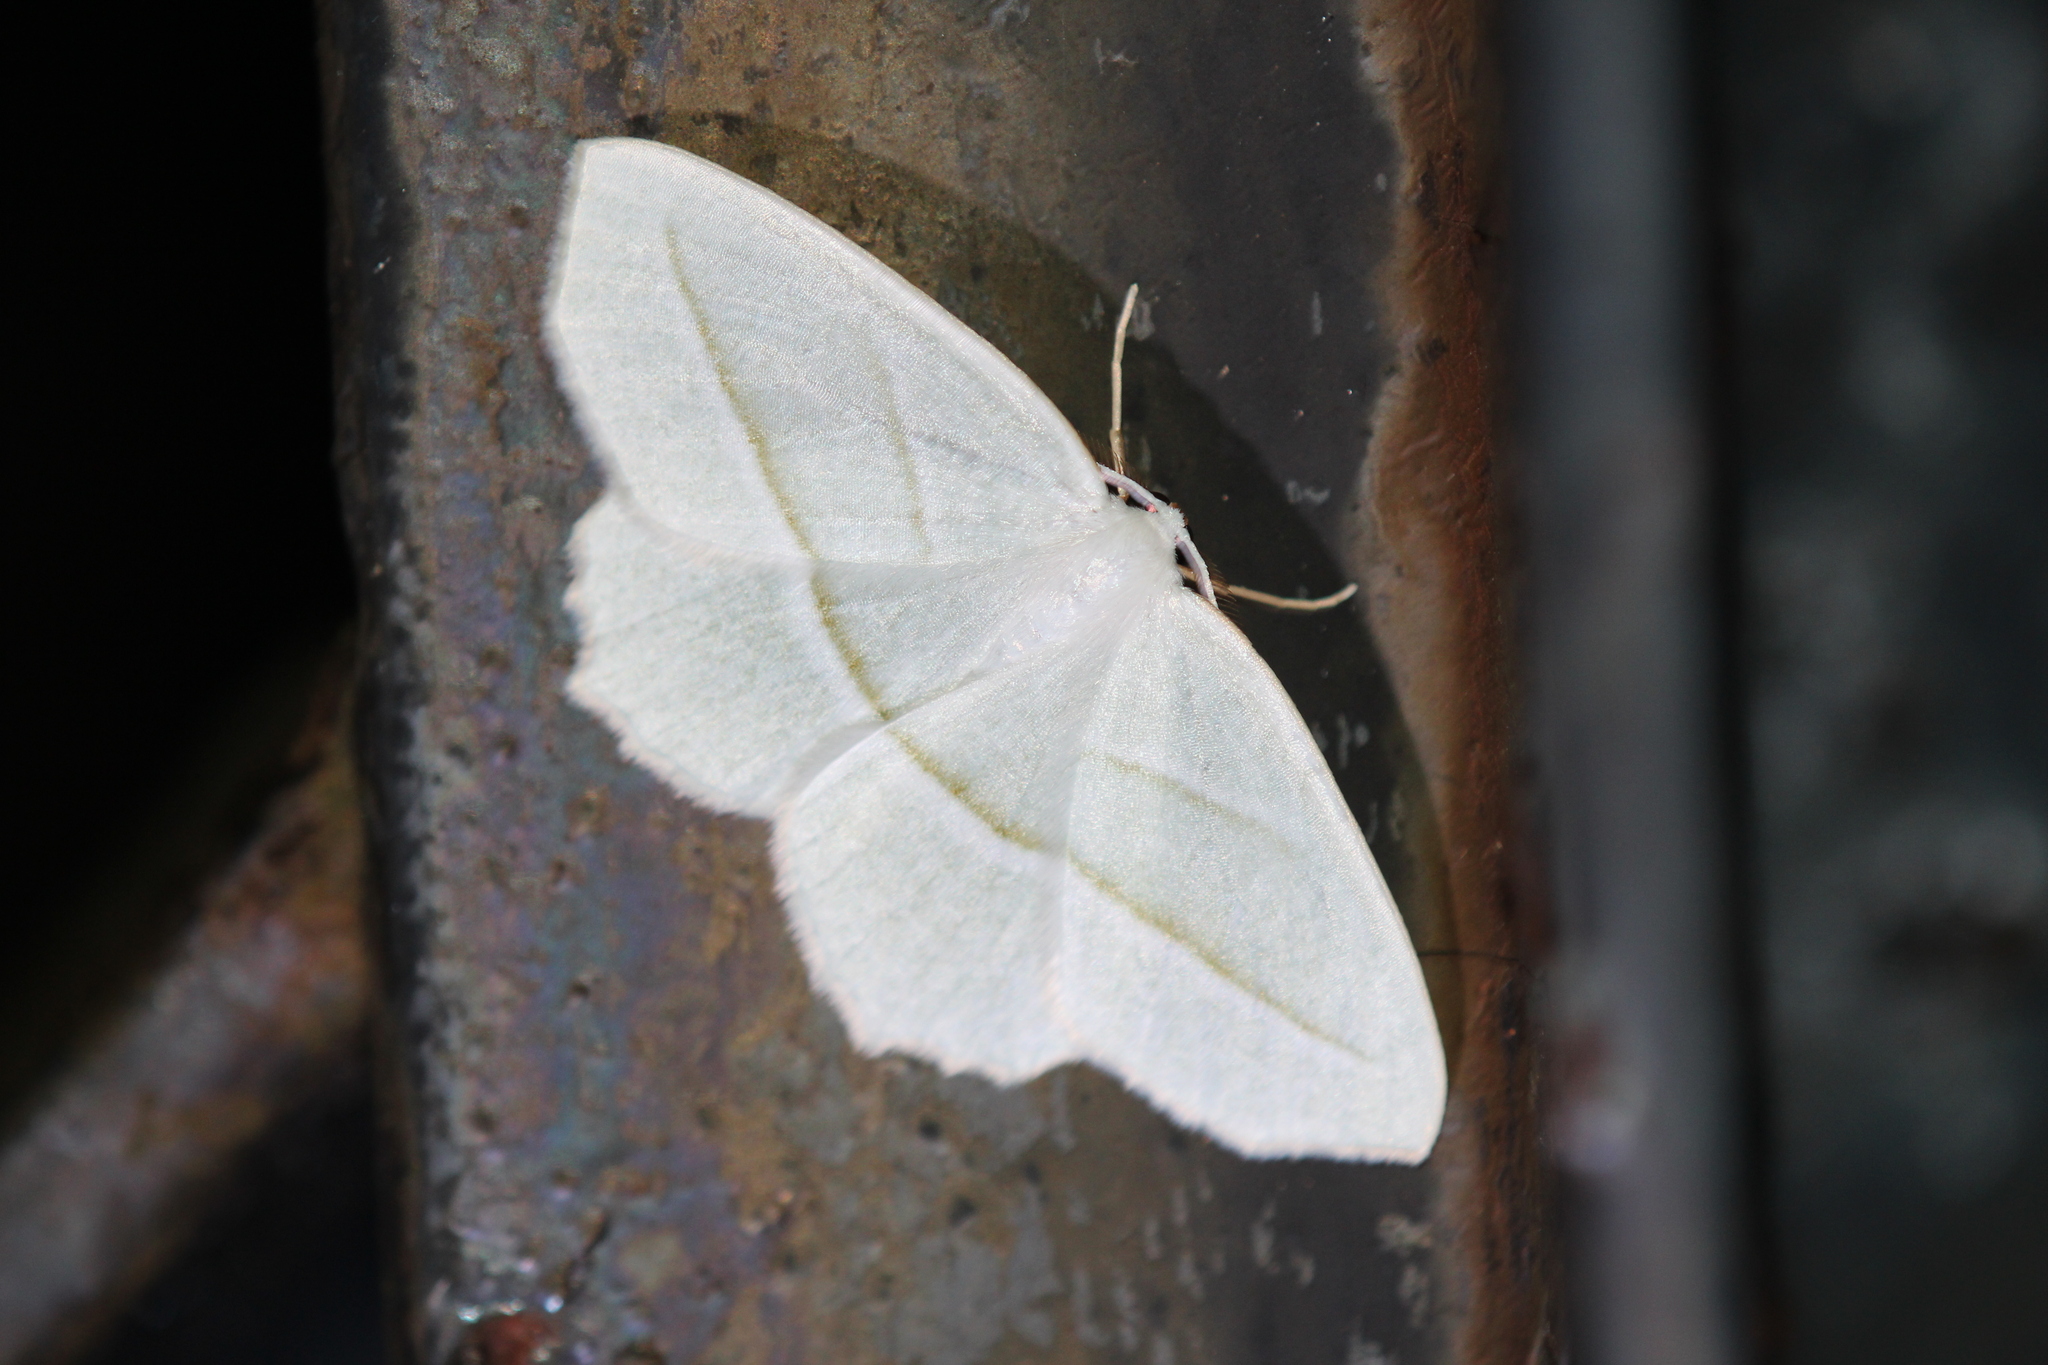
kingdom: Animalia
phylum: Arthropoda
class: Insecta
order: Lepidoptera
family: Geometridae
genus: Campaea
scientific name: Campaea perlata
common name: Fringed looper
